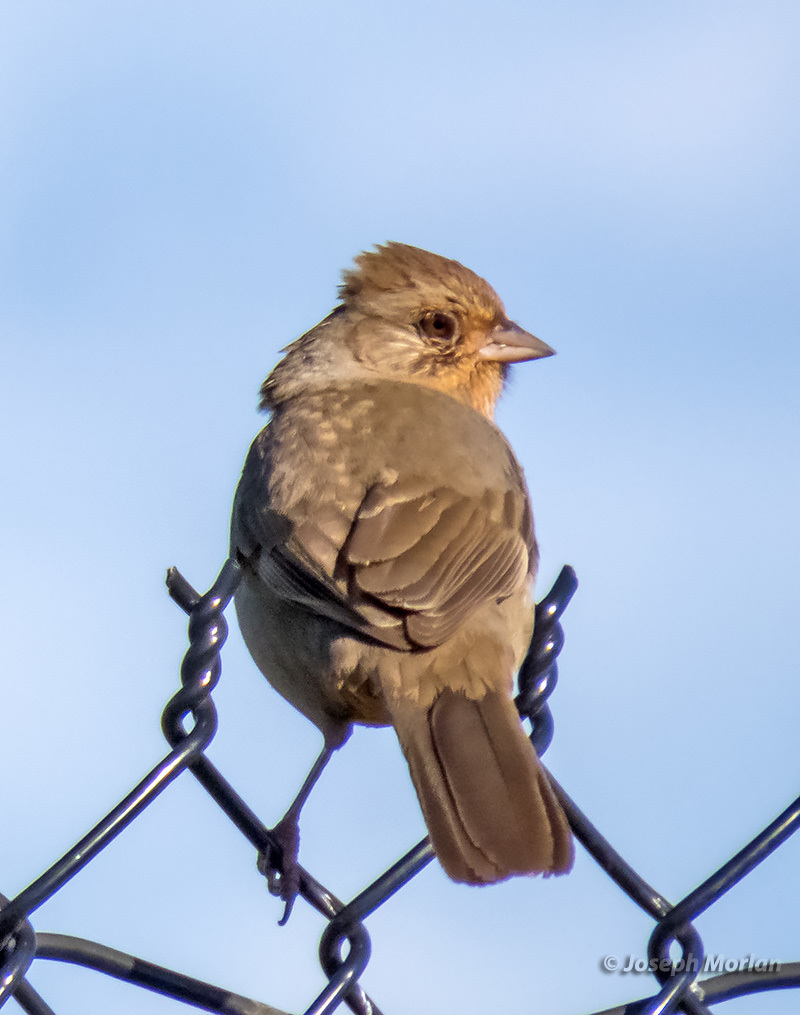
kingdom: Animalia
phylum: Chordata
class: Aves
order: Passeriformes
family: Passerellidae
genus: Melozone
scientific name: Melozone crissalis
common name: California towhee
